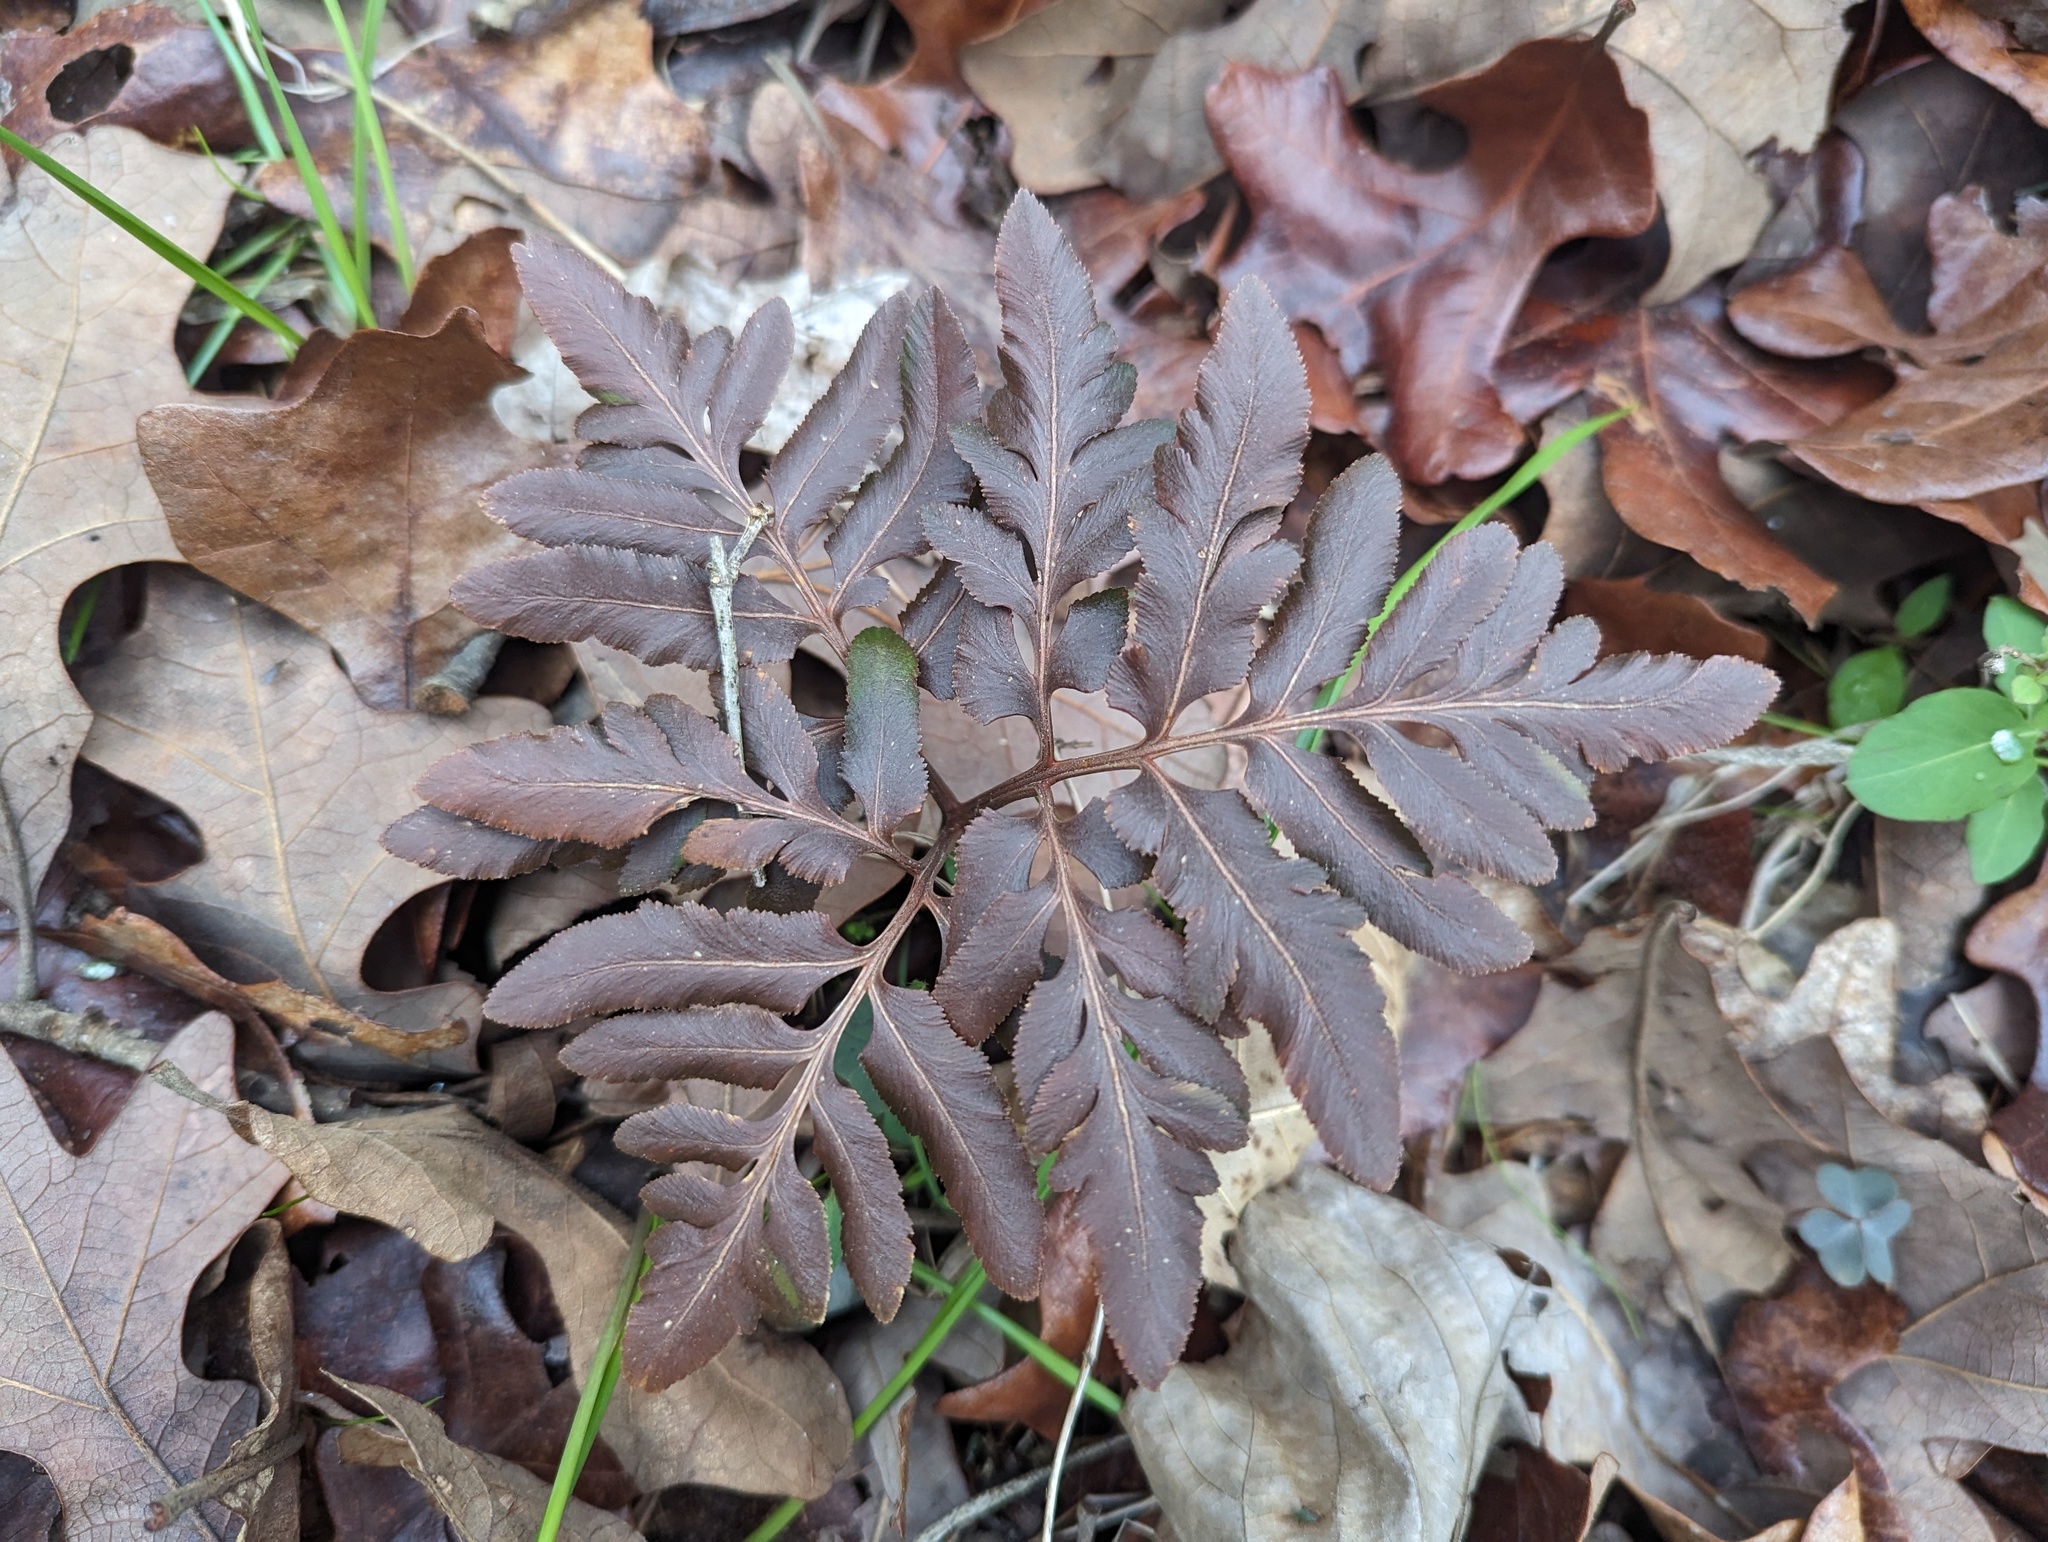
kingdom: Plantae
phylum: Tracheophyta
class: Polypodiopsida
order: Ophioglossales
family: Ophioglossaceae
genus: Sceptridium
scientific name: Sceptridium dissectum
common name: Cut-leaved grapefern
